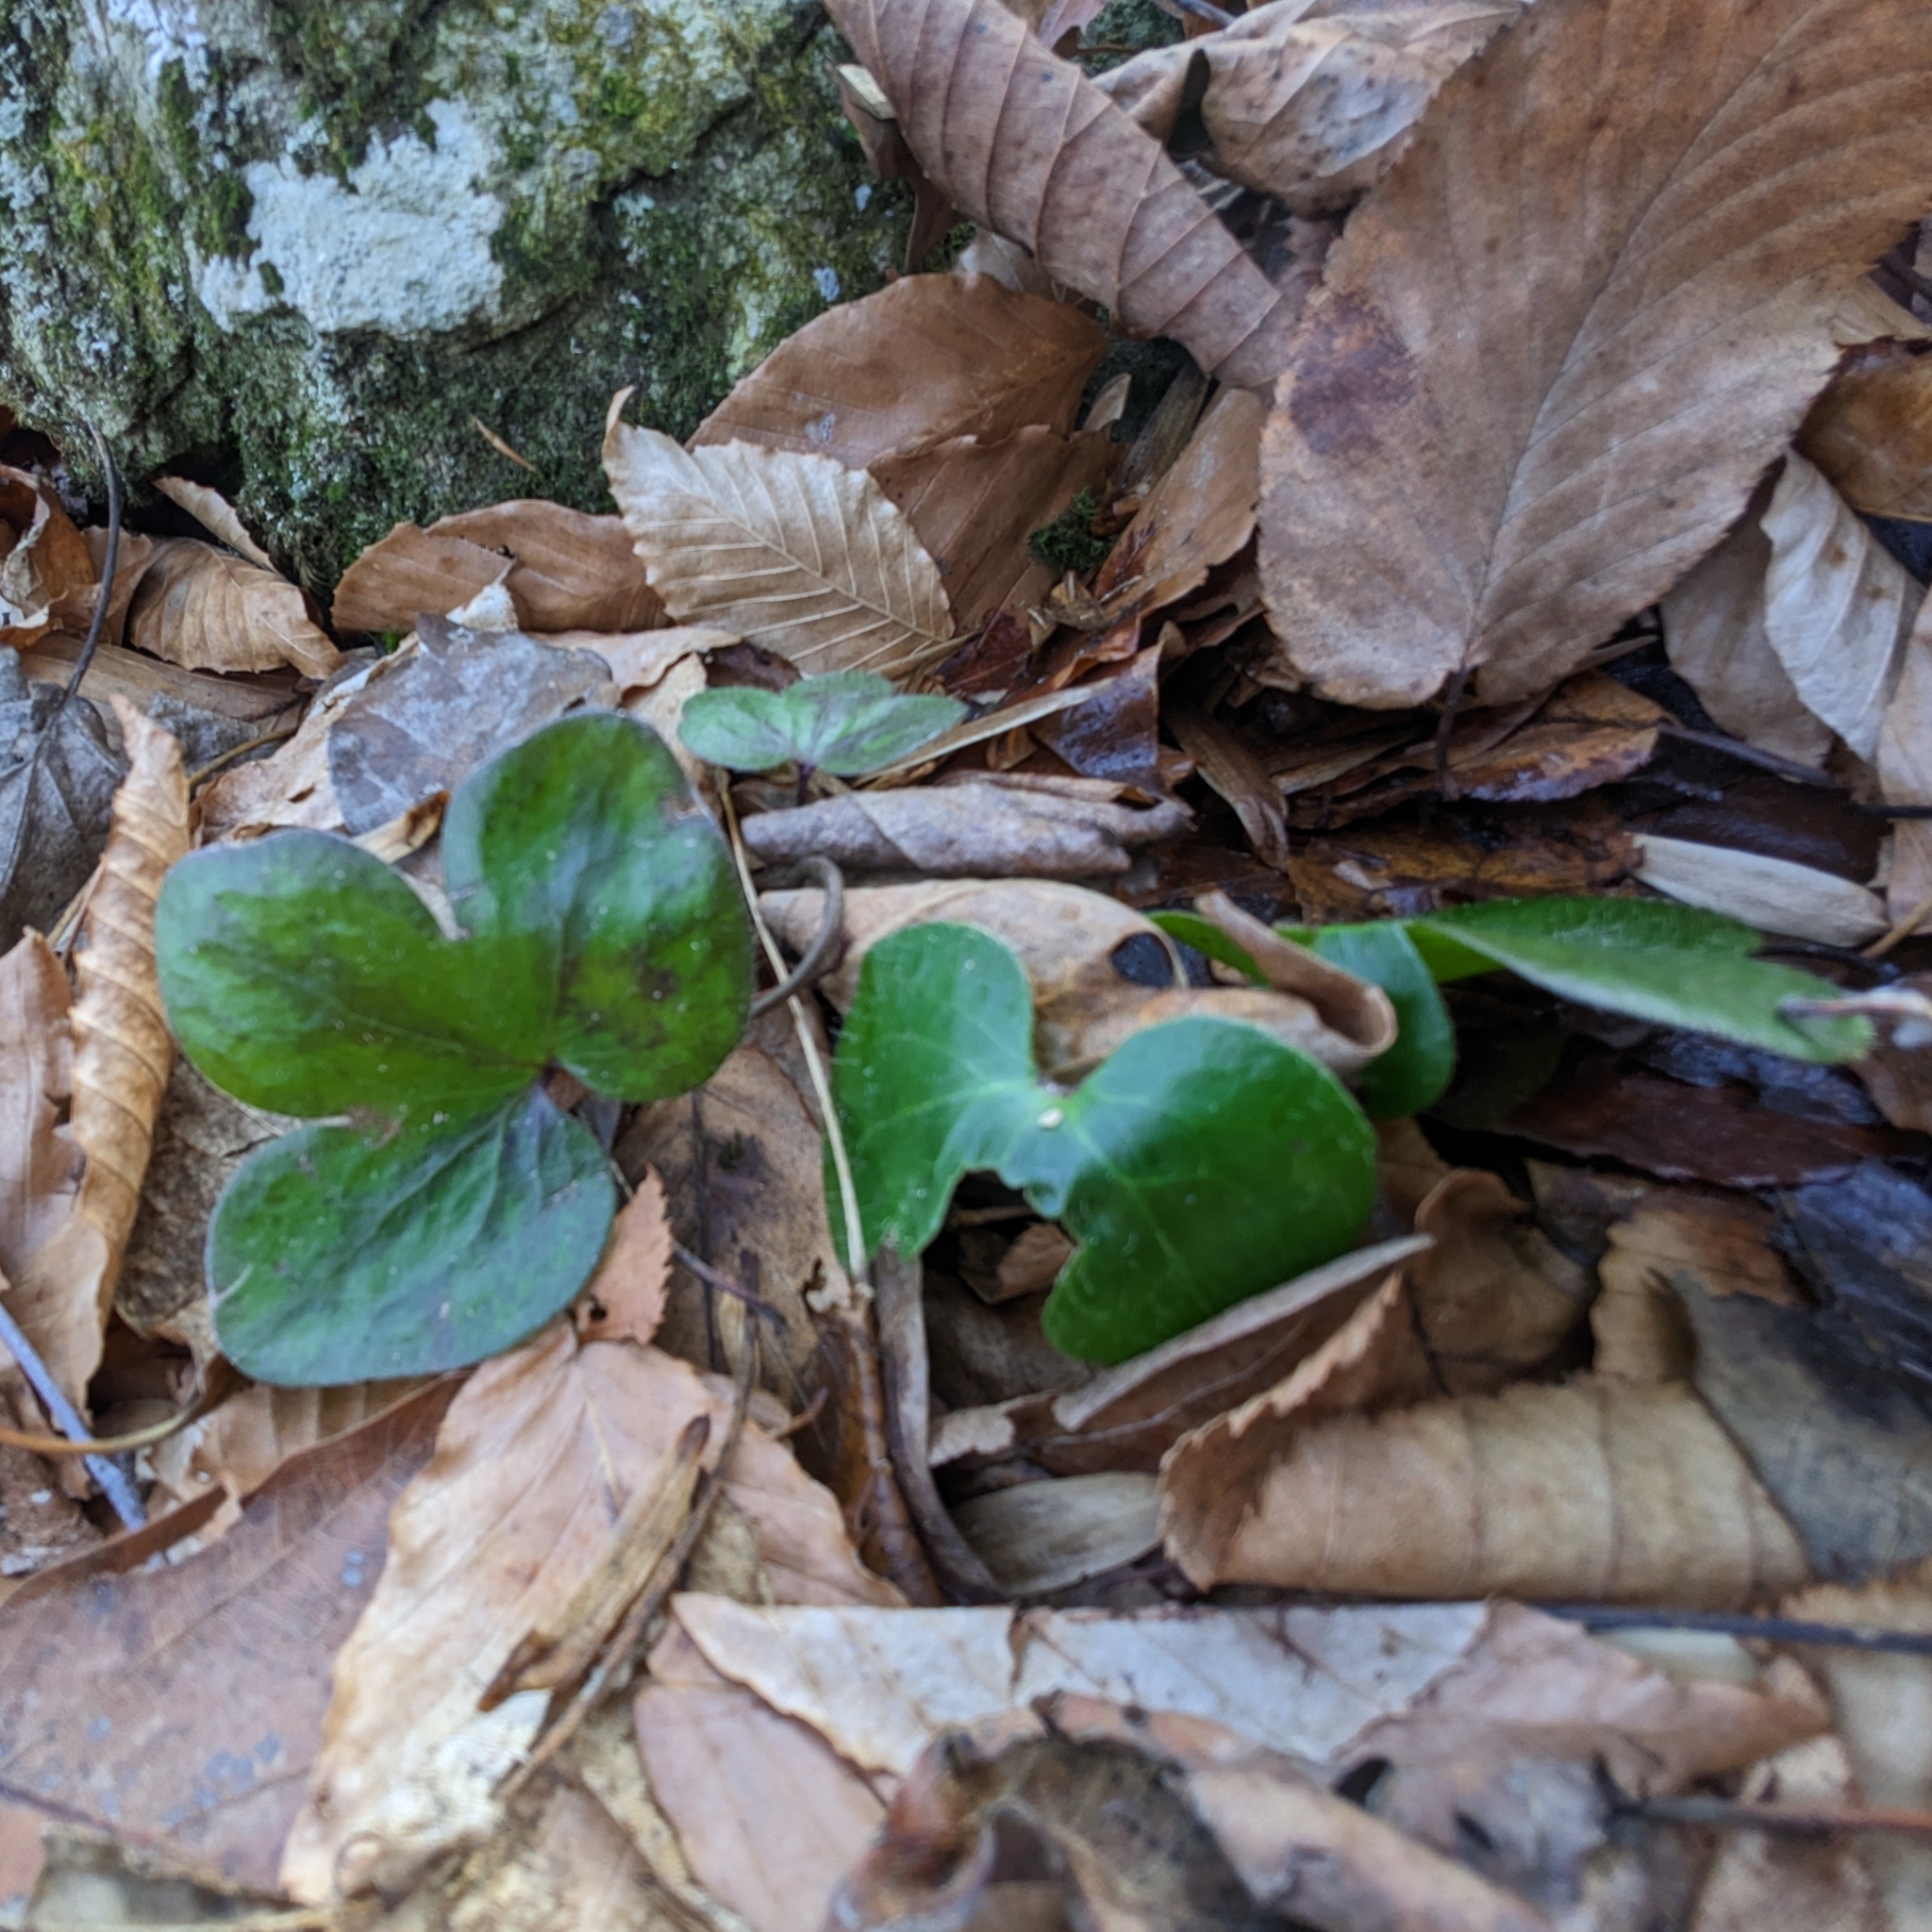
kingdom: Plantae
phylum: Tracheophyta
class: Magnoliopsida
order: Ranunculales
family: Ranunculaceae
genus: Hepatica
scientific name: Hepatica americana
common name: American hepatica
